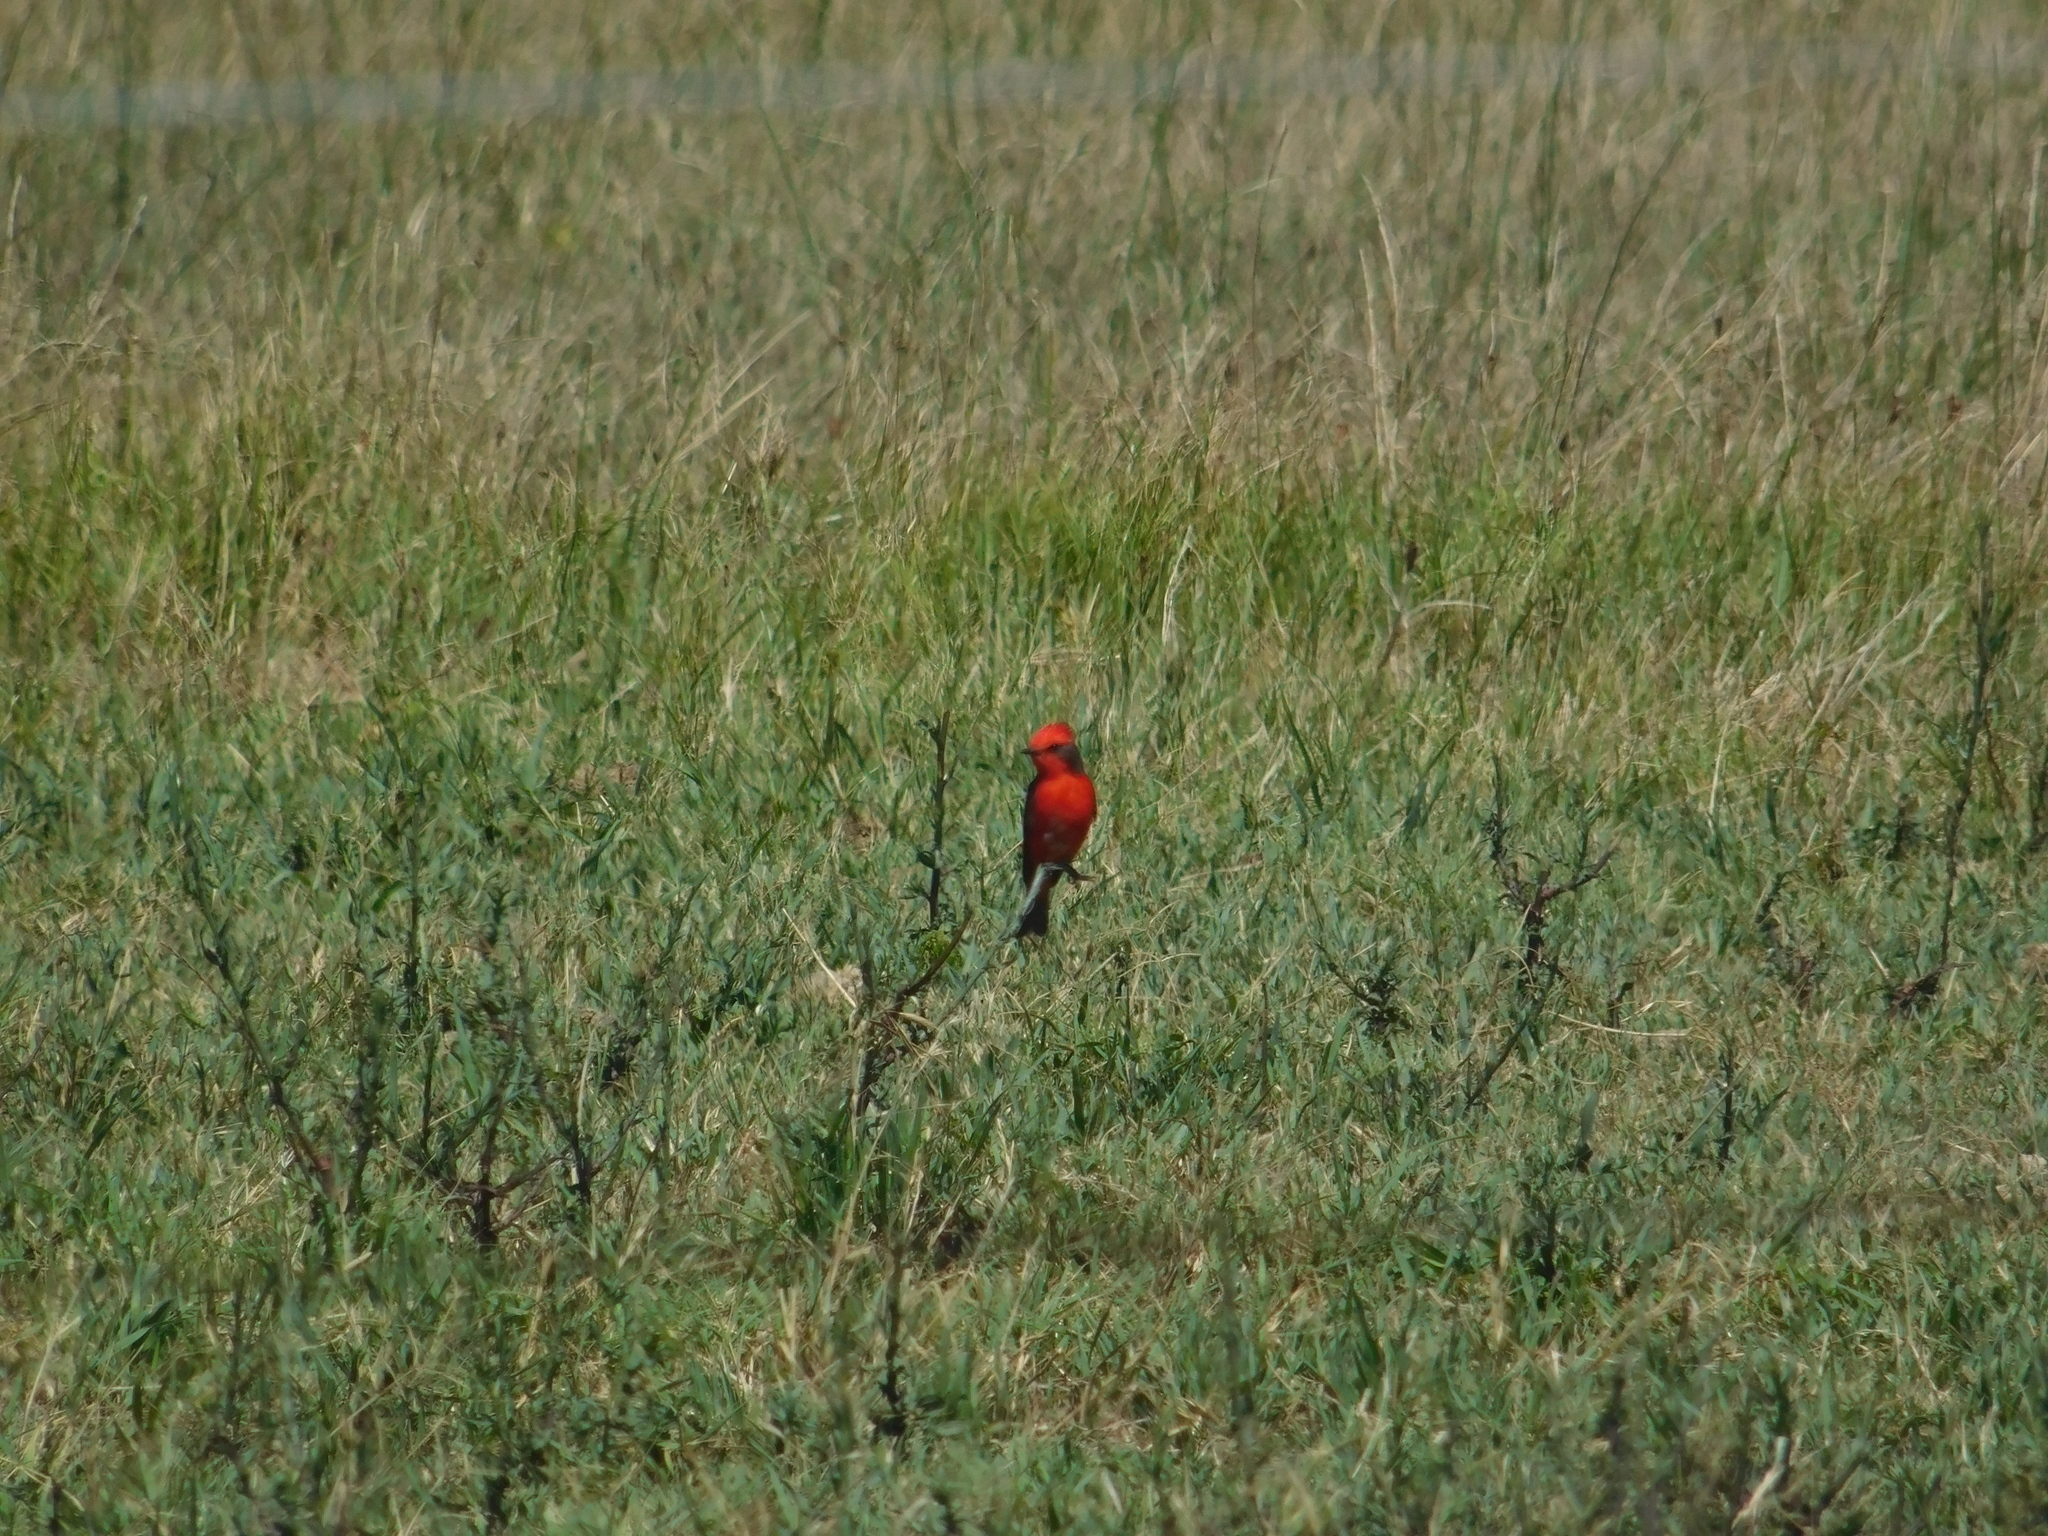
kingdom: Animalia
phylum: Chordata
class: Aves
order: Passeriformes
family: Tyrannidae
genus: Pyrocephalus
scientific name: Pyrocephalus rubinus
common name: Vermilion flycatcher
